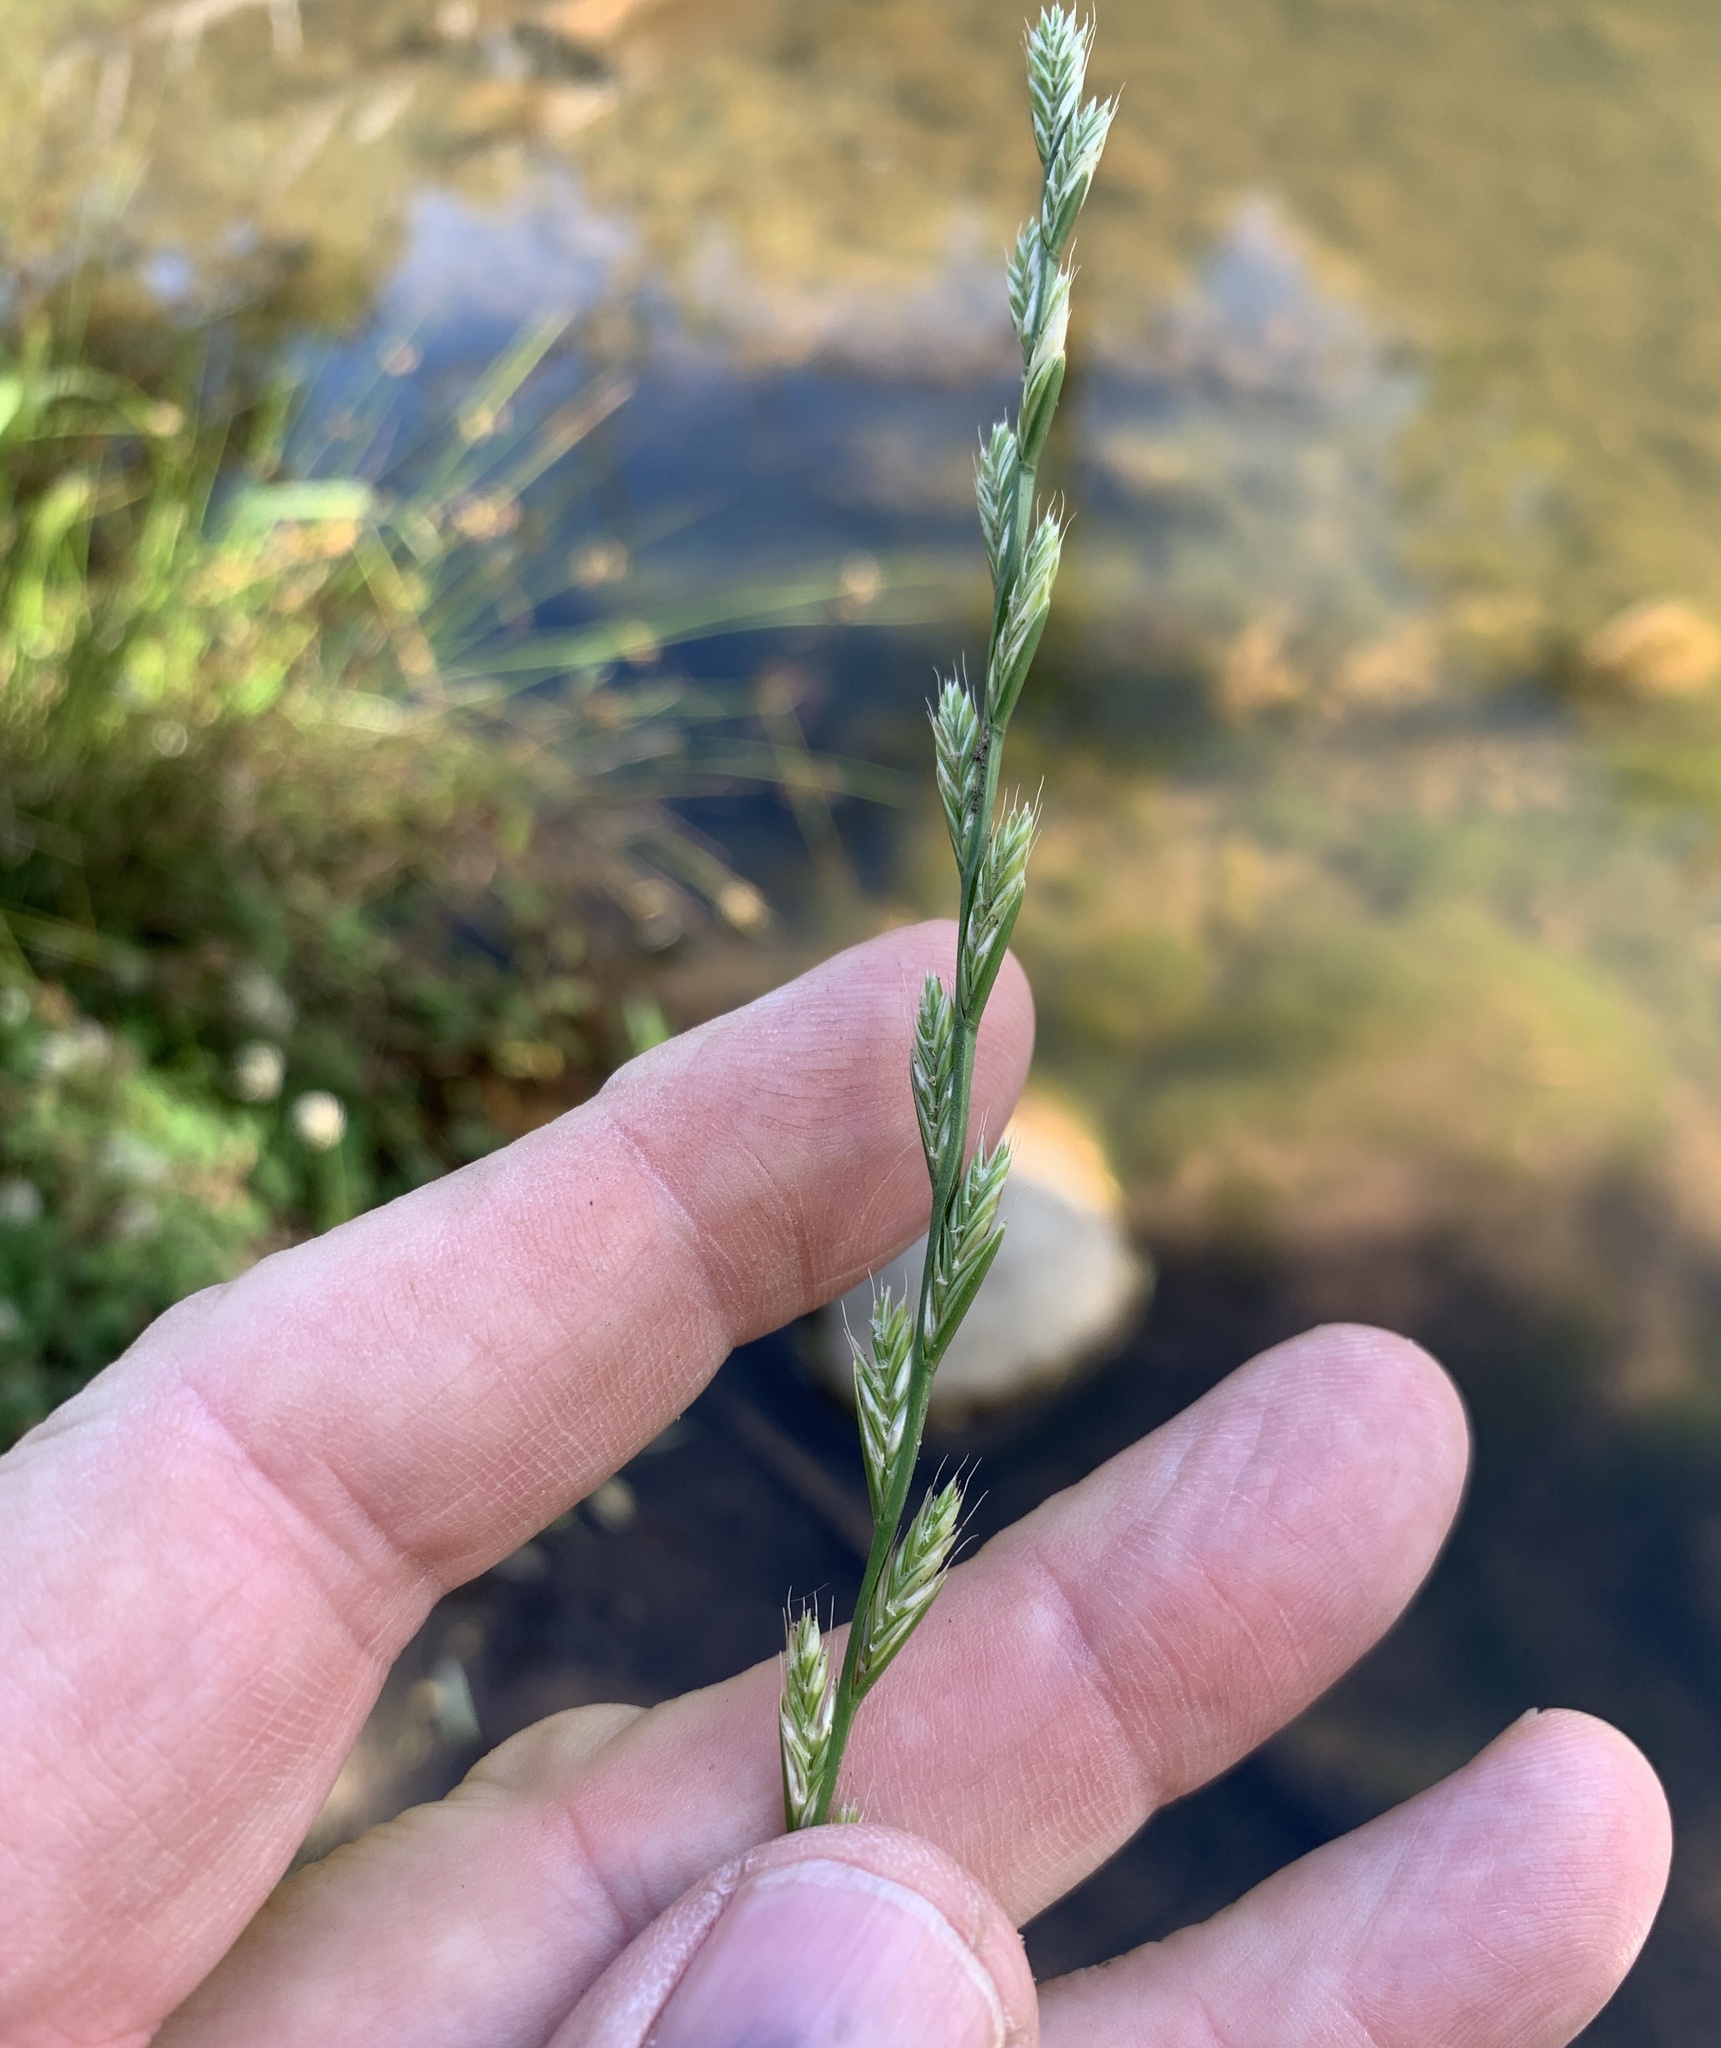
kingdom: Plantae
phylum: Tracheophyta
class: Liliopsida
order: Poales
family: Poaceae
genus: Lolium
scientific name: Lolium
